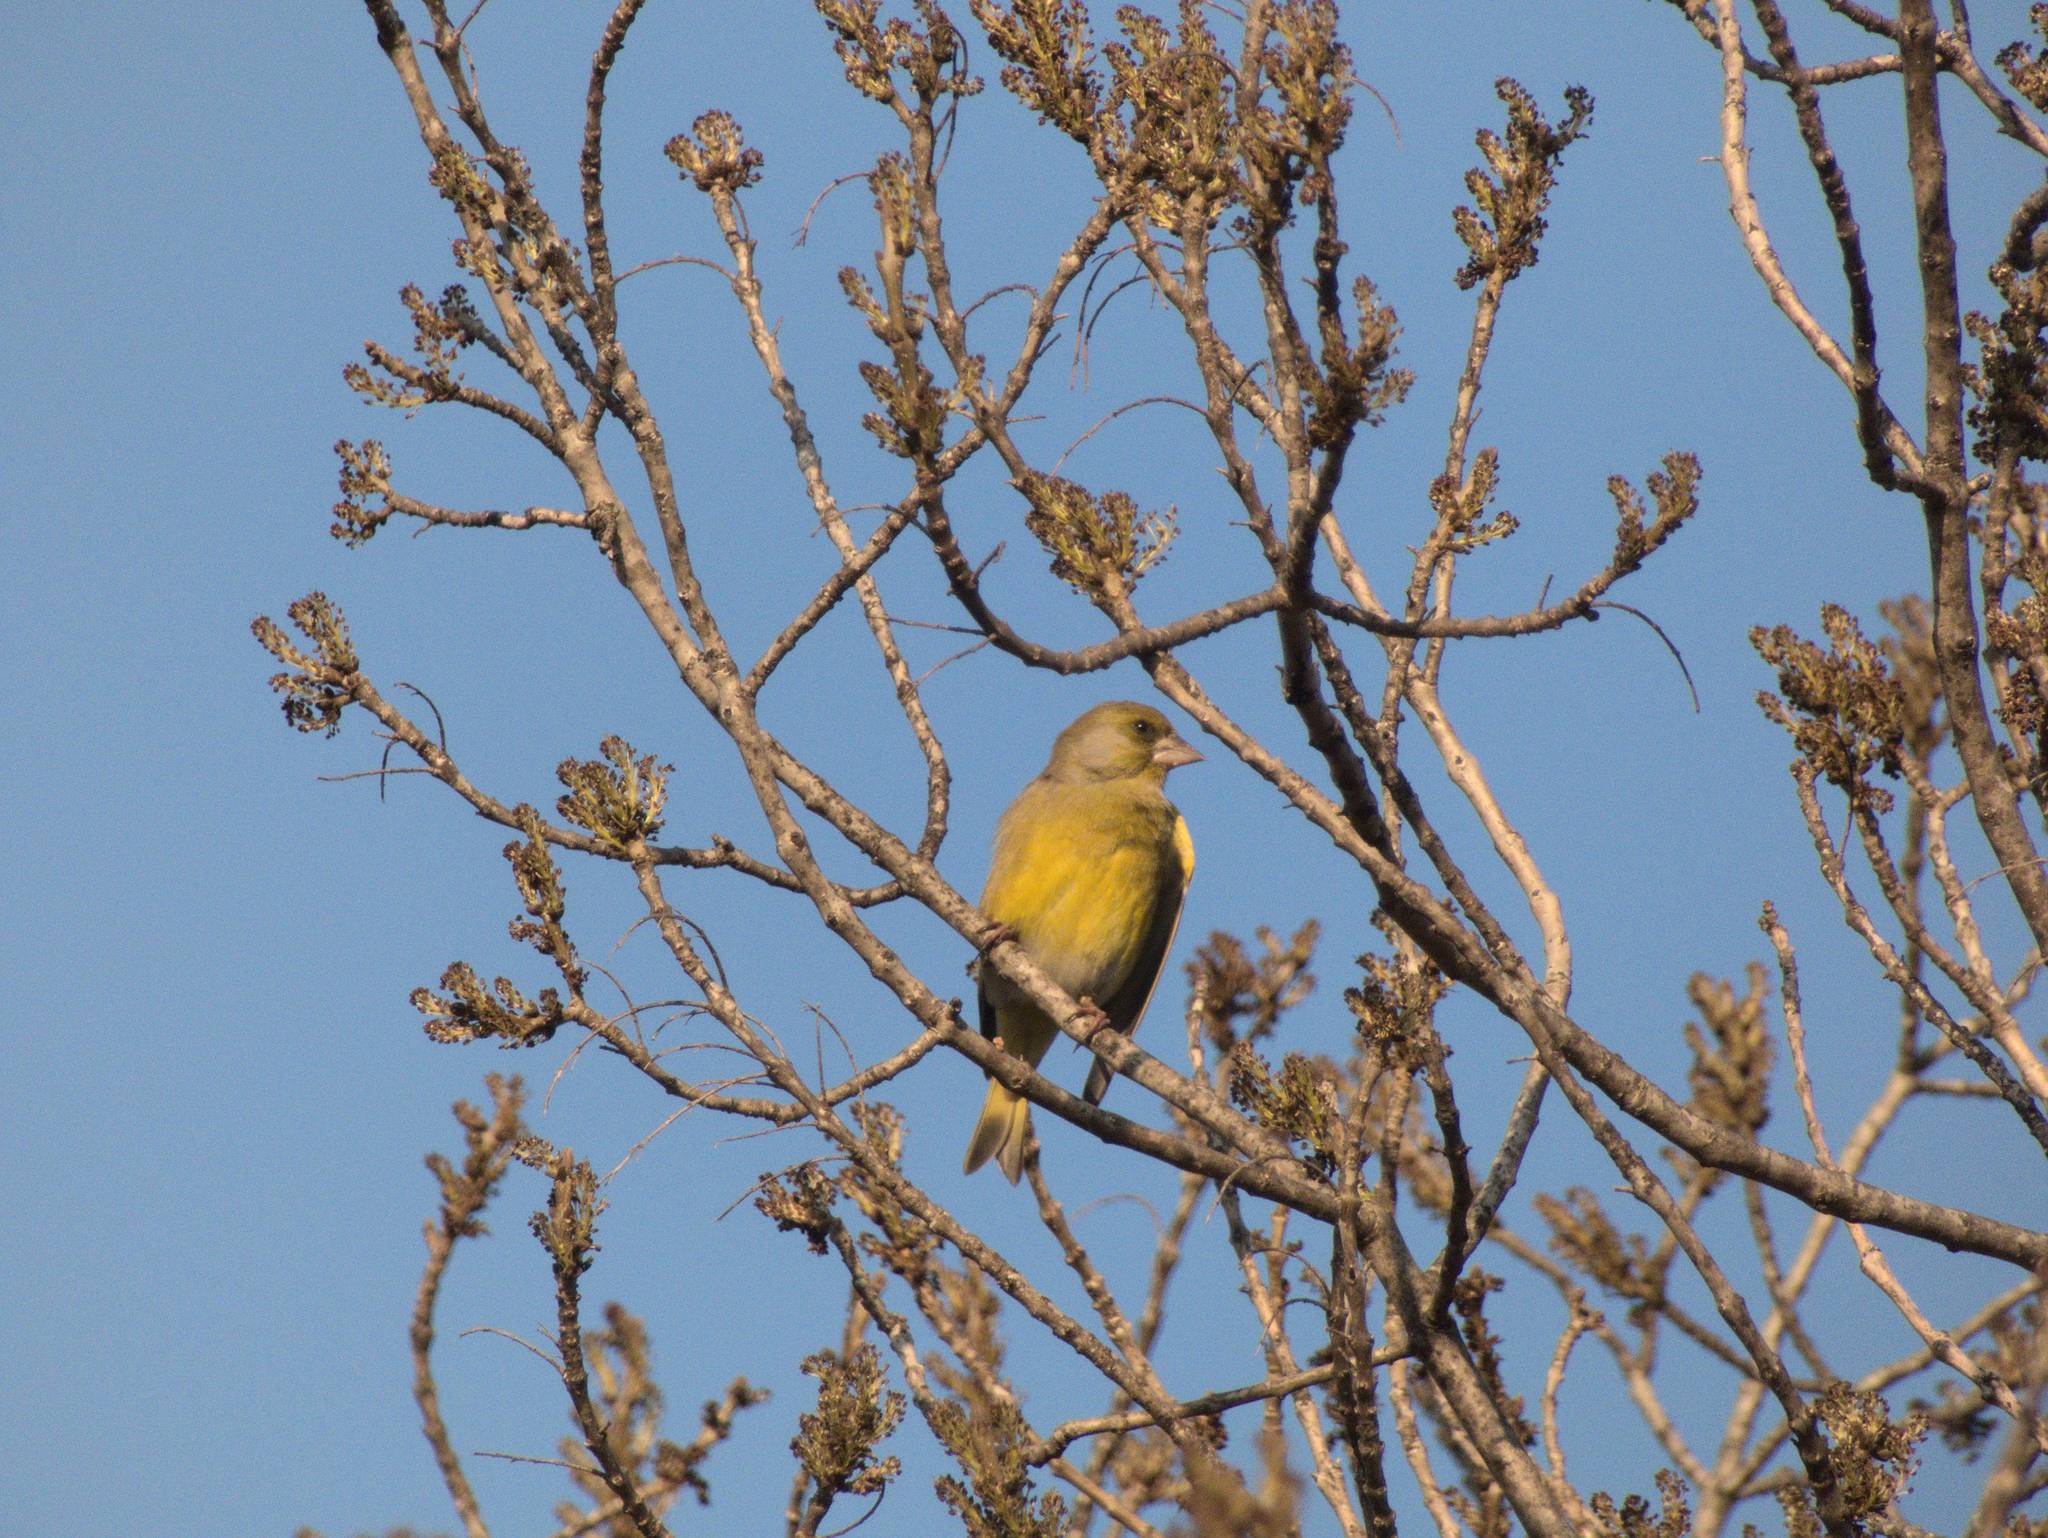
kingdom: Plantae
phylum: Tracheophyta
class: Liliopsida
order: Poales
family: Poaceae
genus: Chloris
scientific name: Chloris chloris
